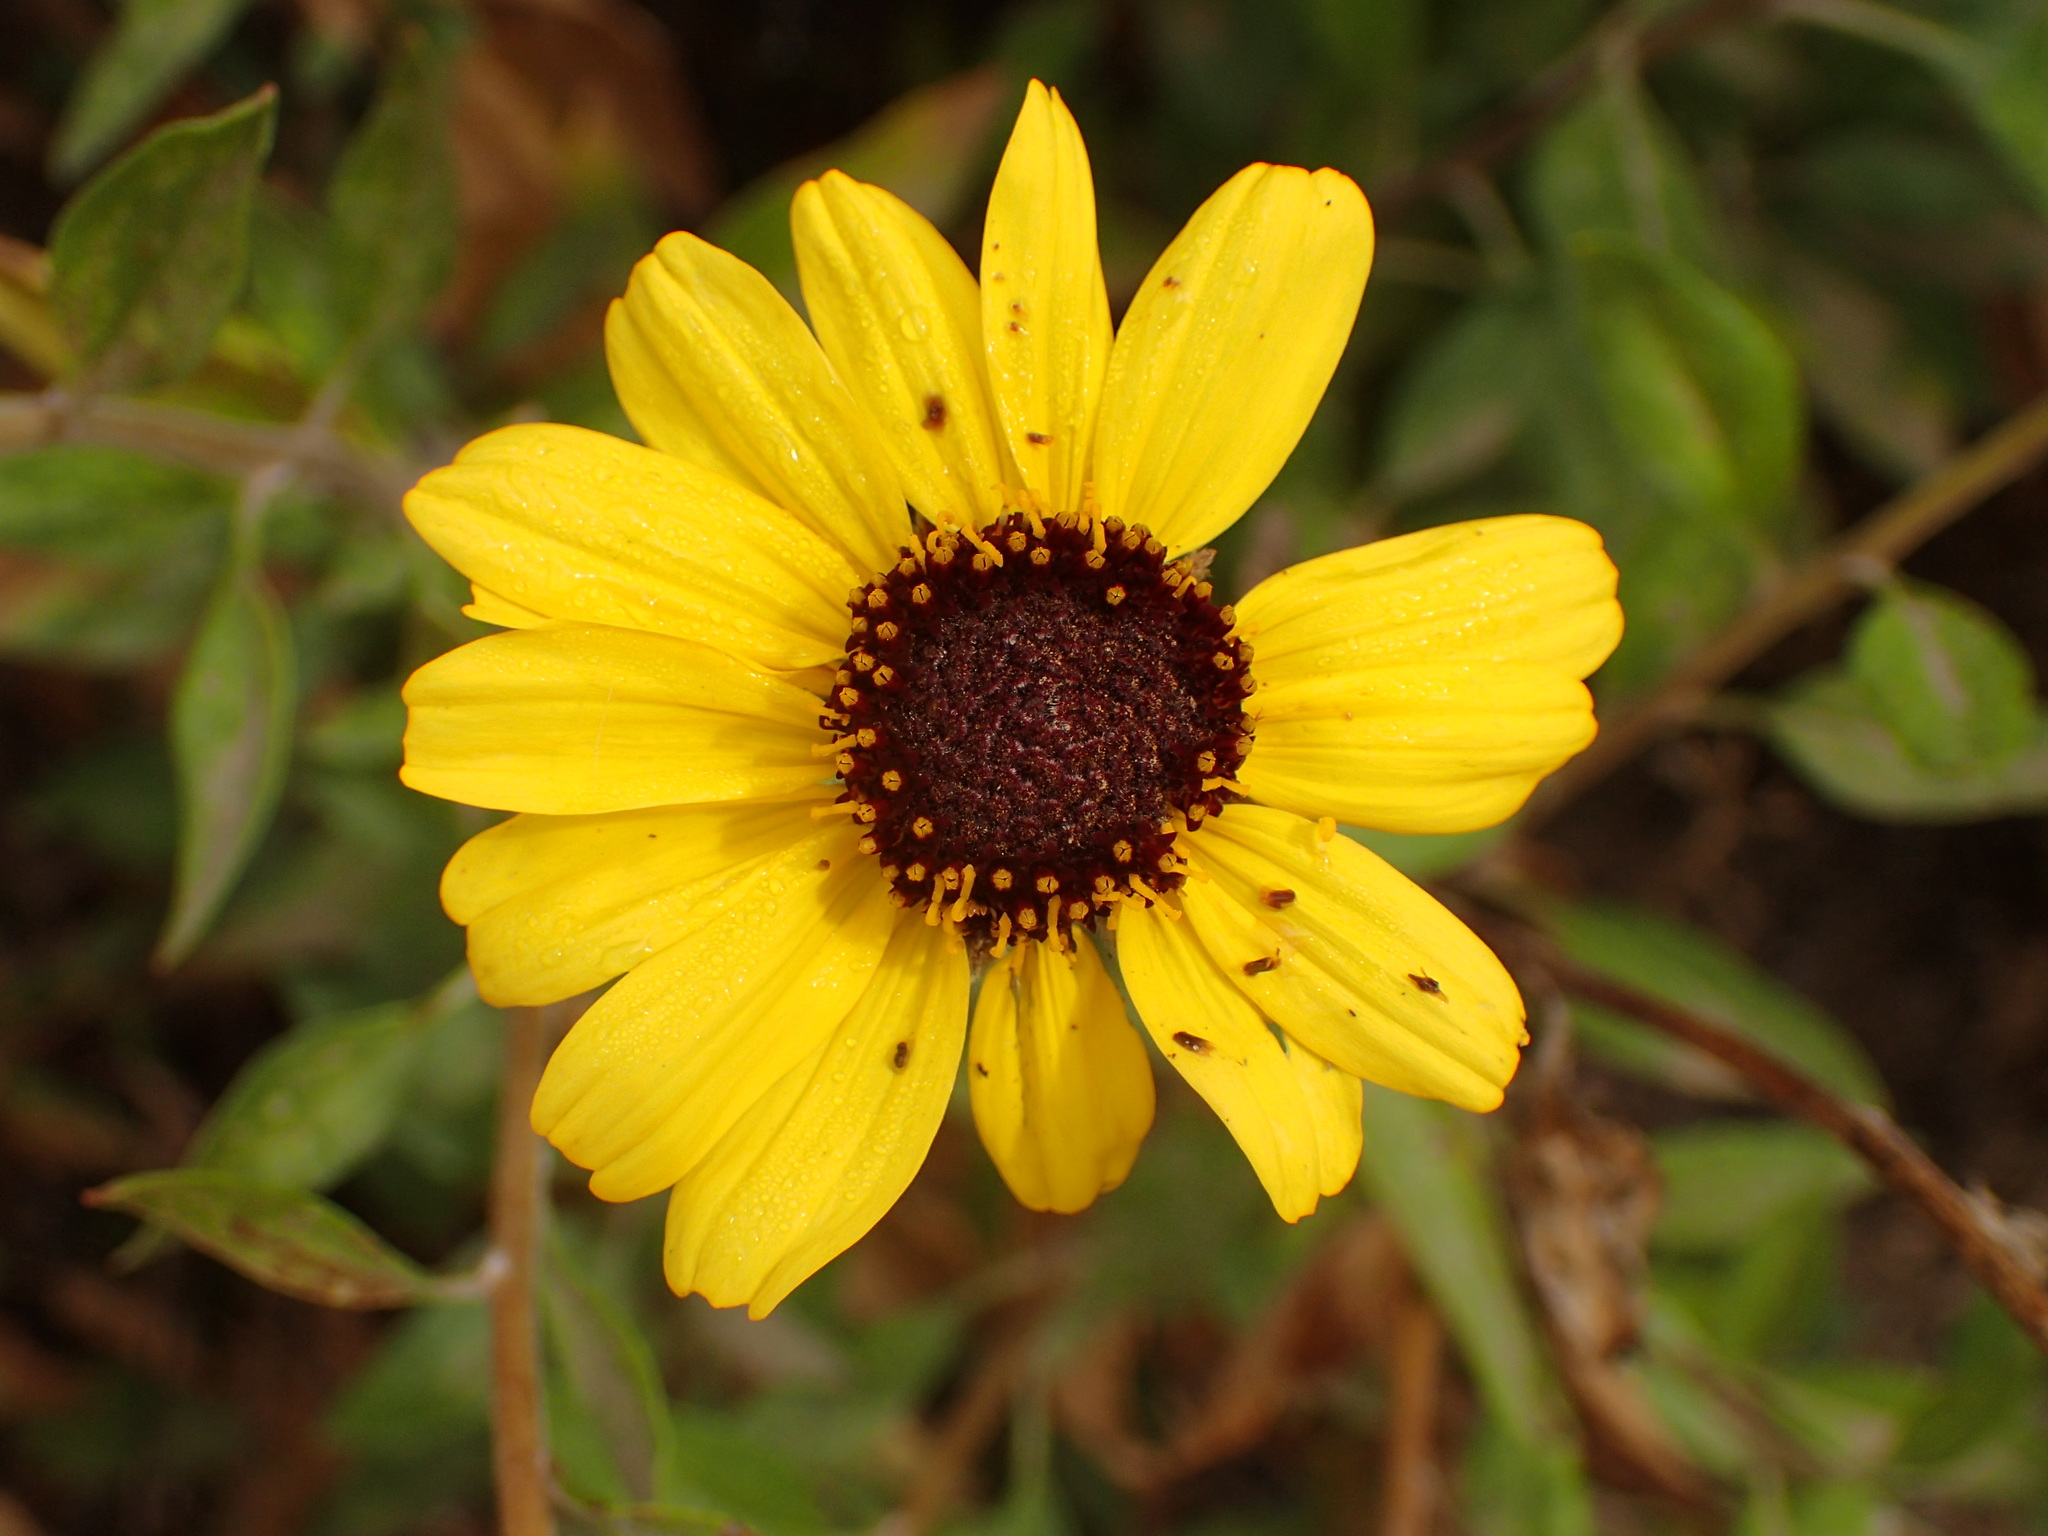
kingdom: Plantae
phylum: Tracheophyta
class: Magnoliopsida
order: Asterales
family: Asteraceae
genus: Encelia
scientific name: Encelia californica
